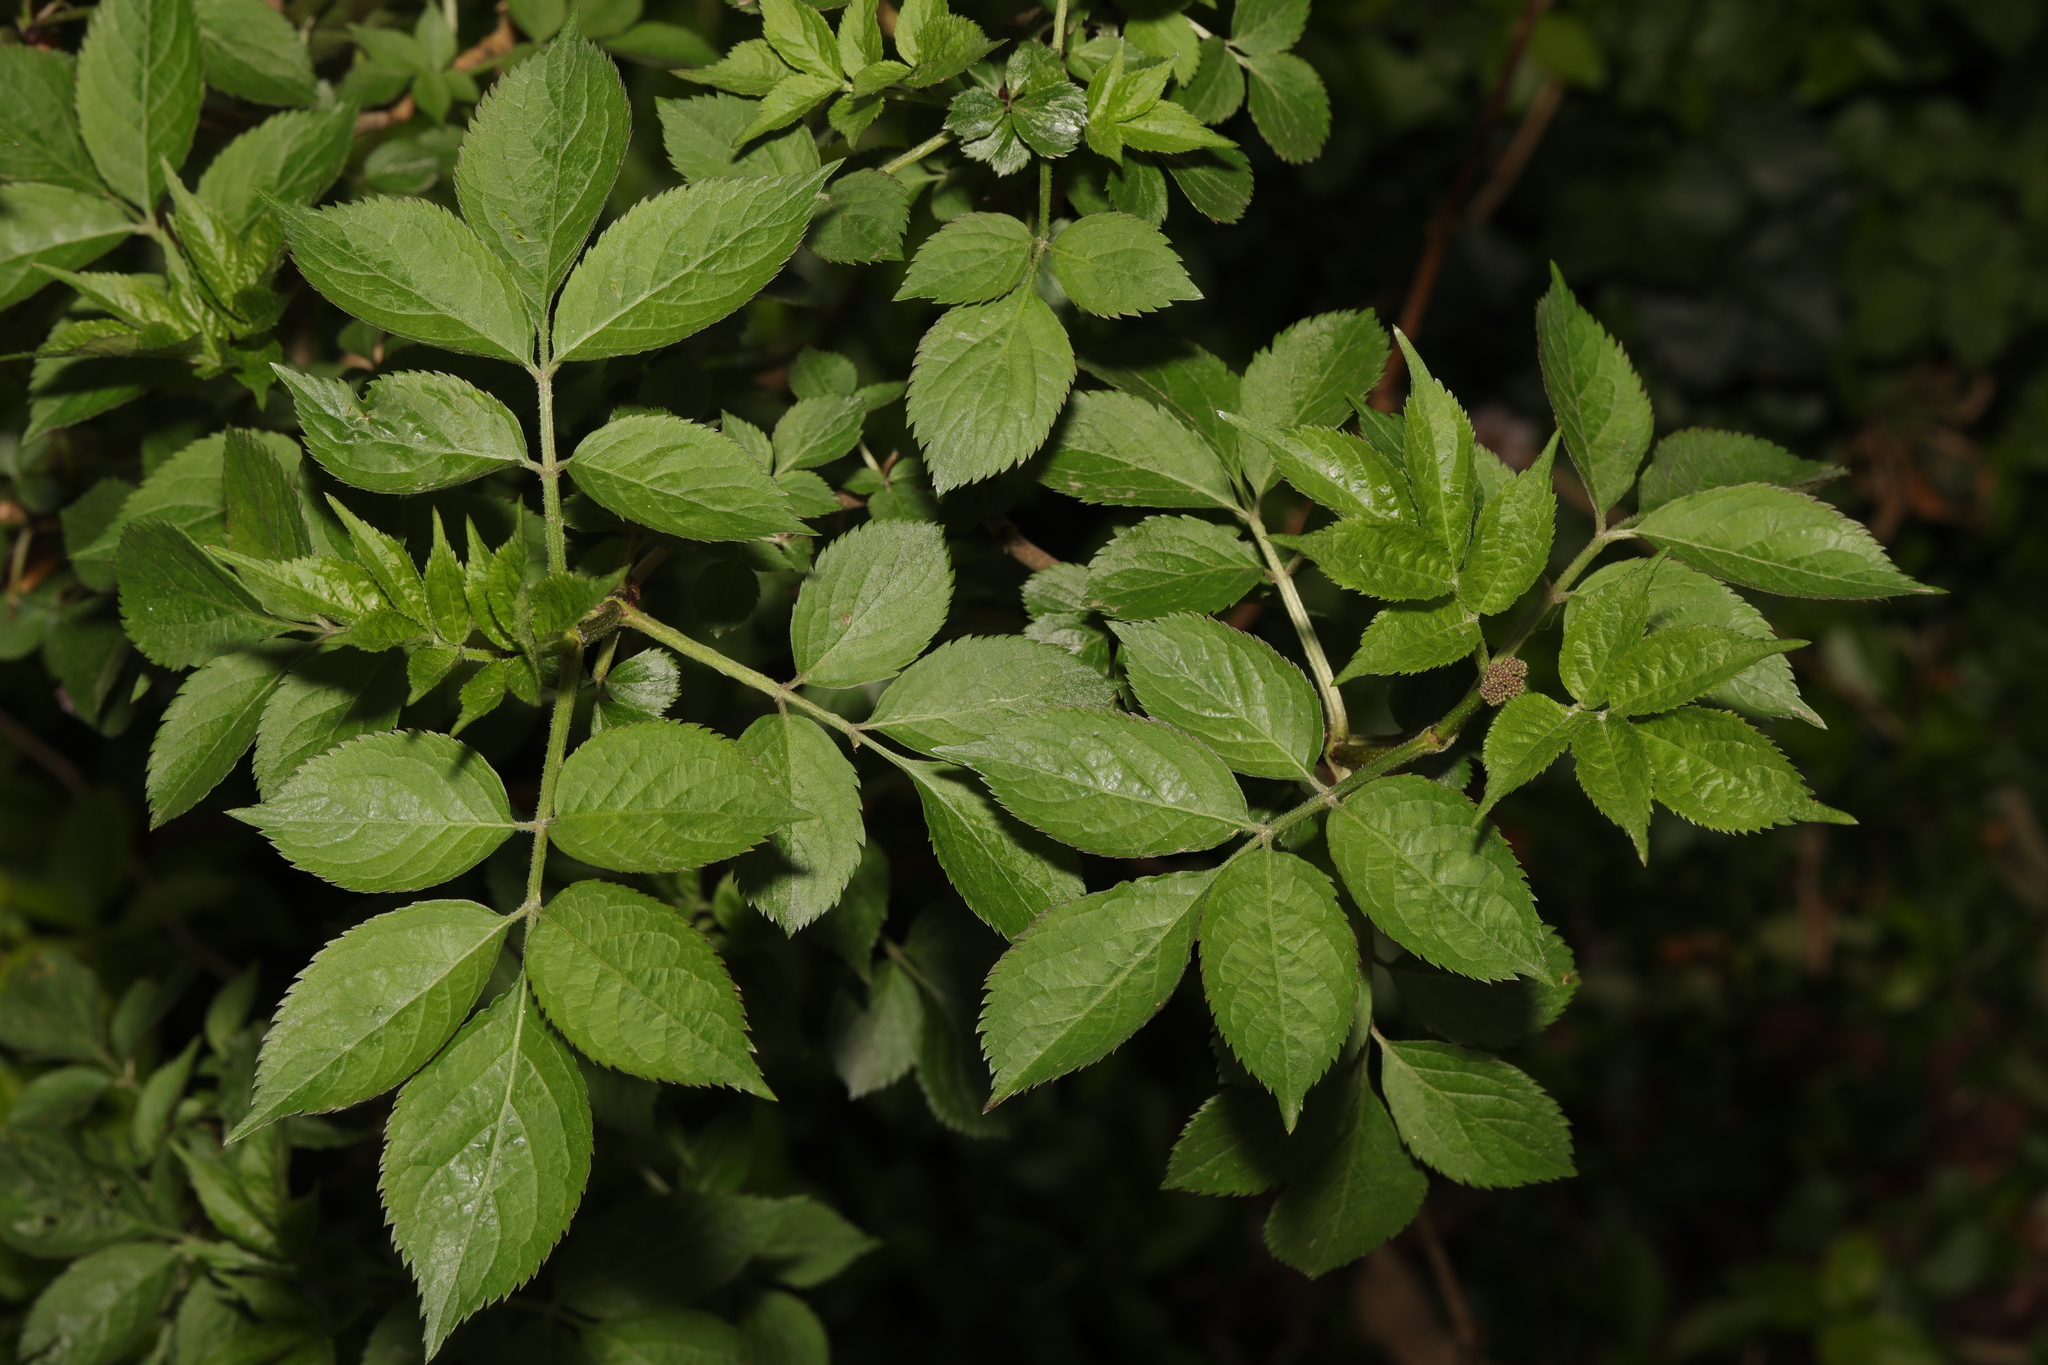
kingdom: Plantae
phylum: Tracheophyta
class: Magnoliopsida
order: Dipsacales
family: Viburnaceae
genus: Sambucus
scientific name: Sambucus nigra
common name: Elder
